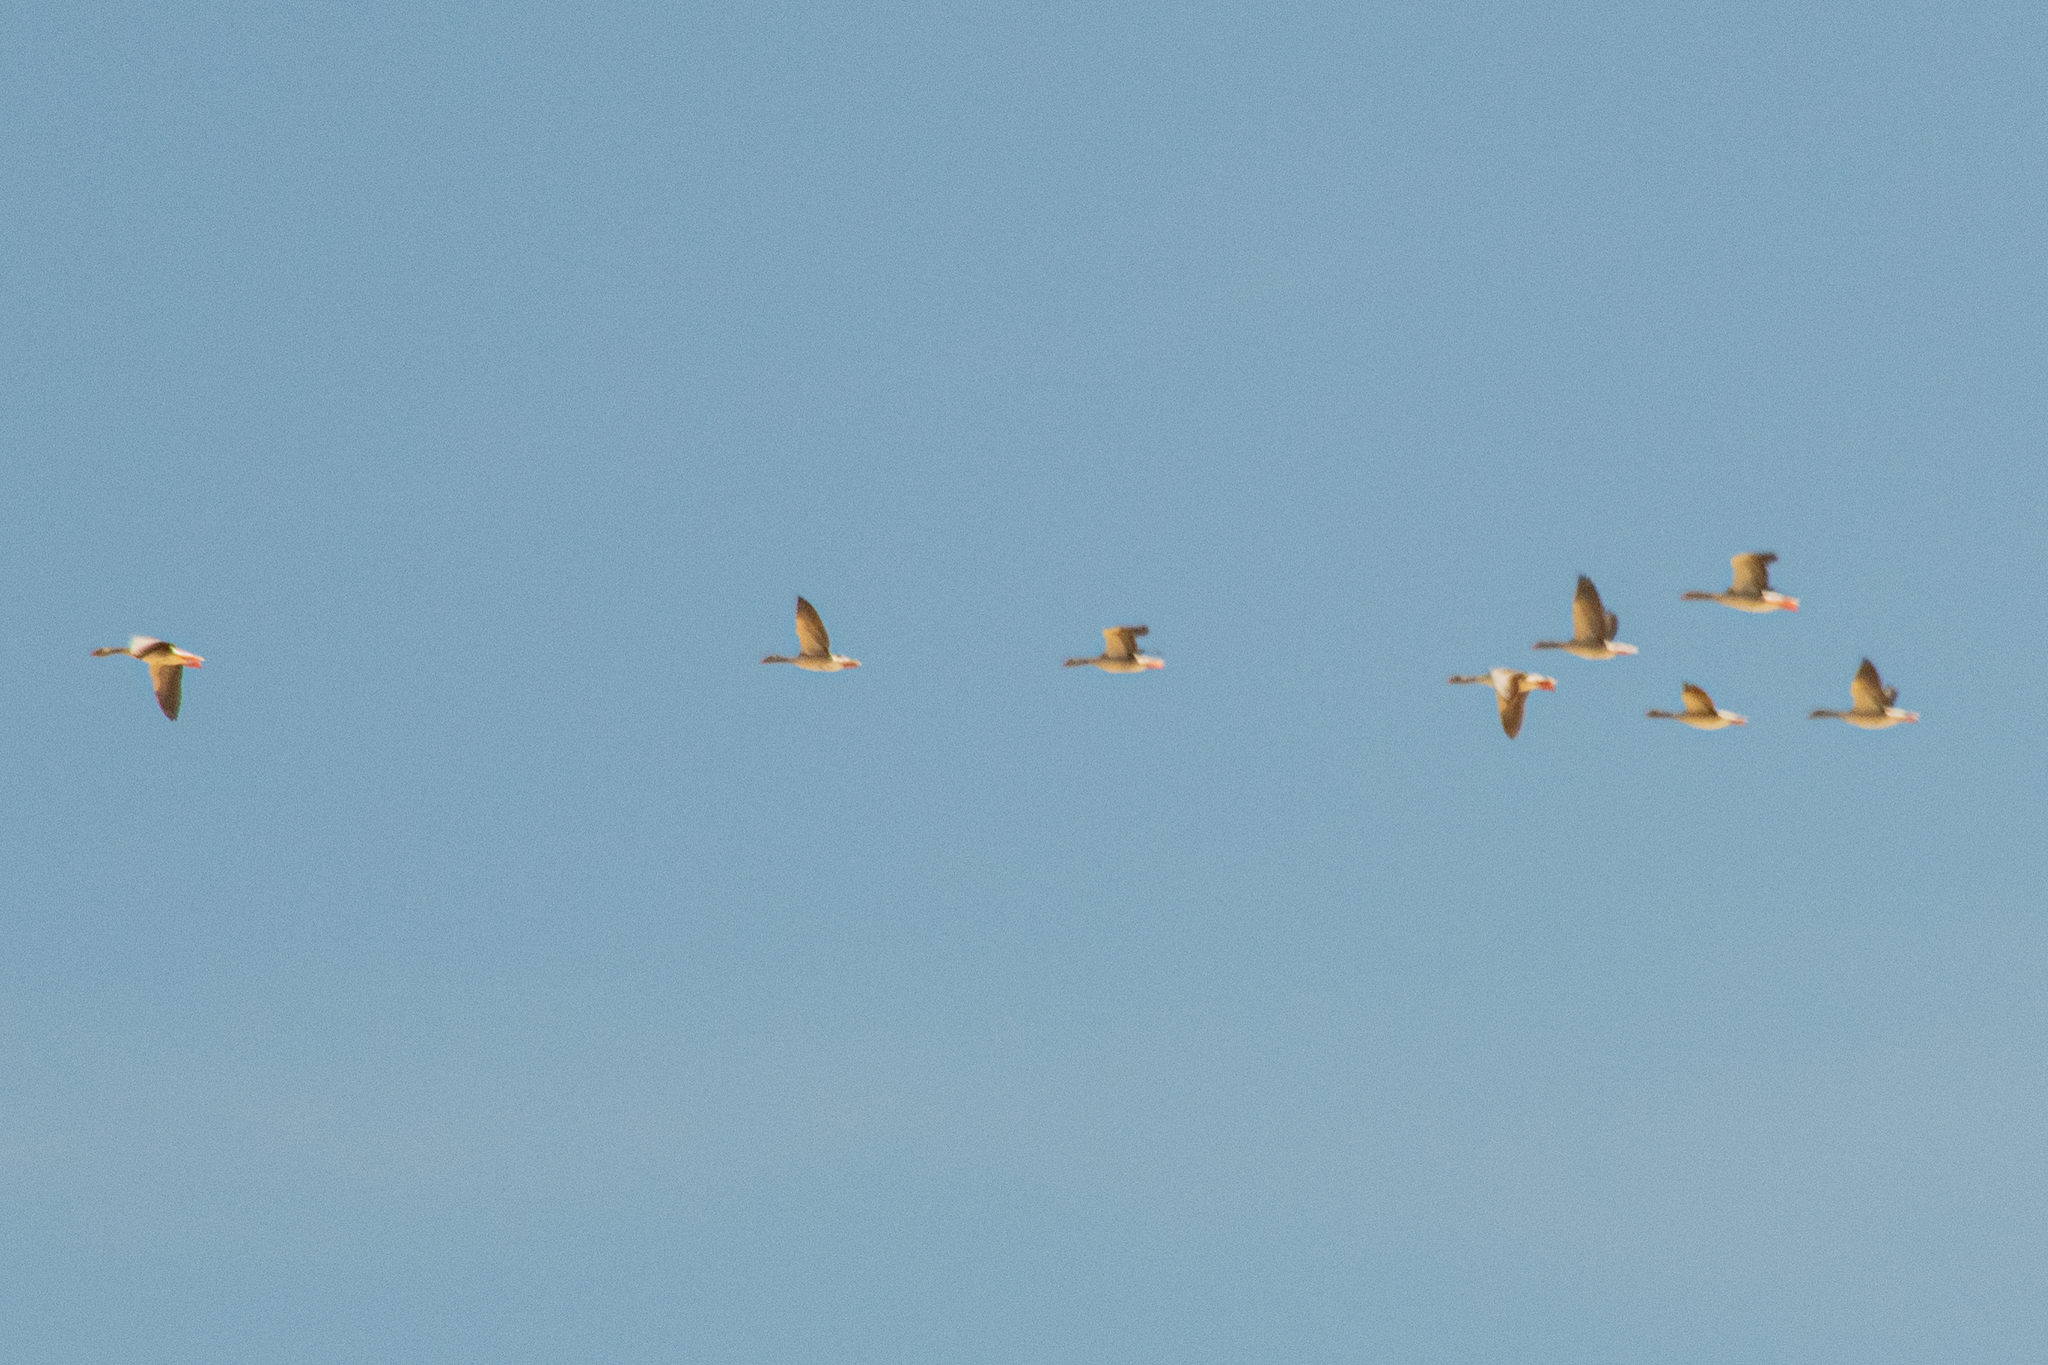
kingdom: Animalia
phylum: Chordata
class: Aves
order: Anseriformes
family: Anatidae
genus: Anser
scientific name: Anser anser
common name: Greylag goose
